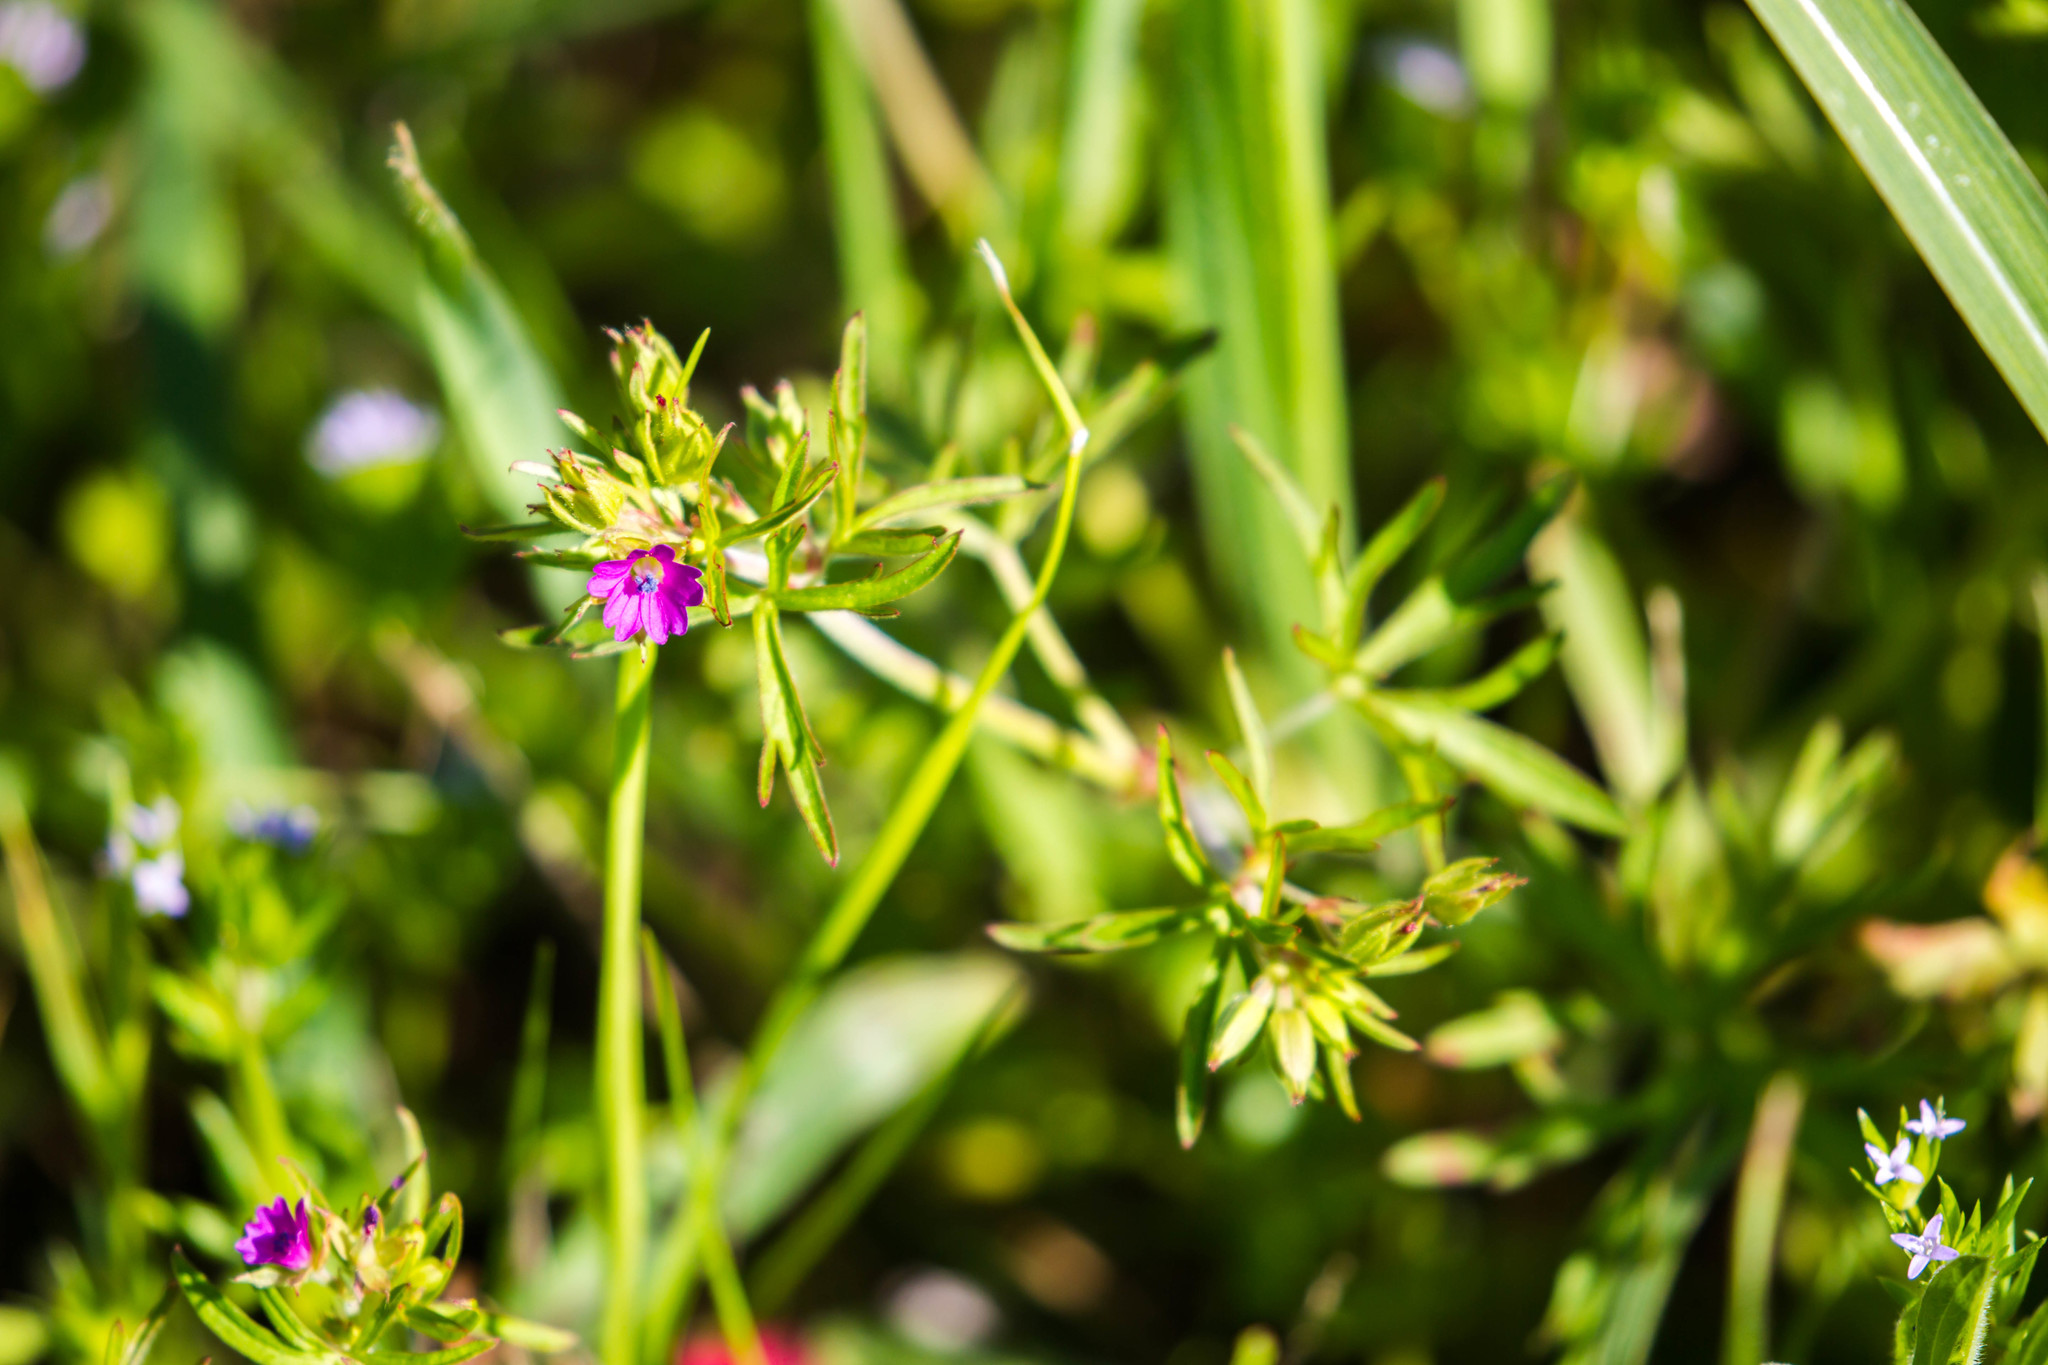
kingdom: Plantae
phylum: Tracheophyta
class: Magnoliopsida
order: Geraniales
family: Geraniaceae
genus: Geranium
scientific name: Geranium dissectum
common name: Cut-leaved crane's-bill
